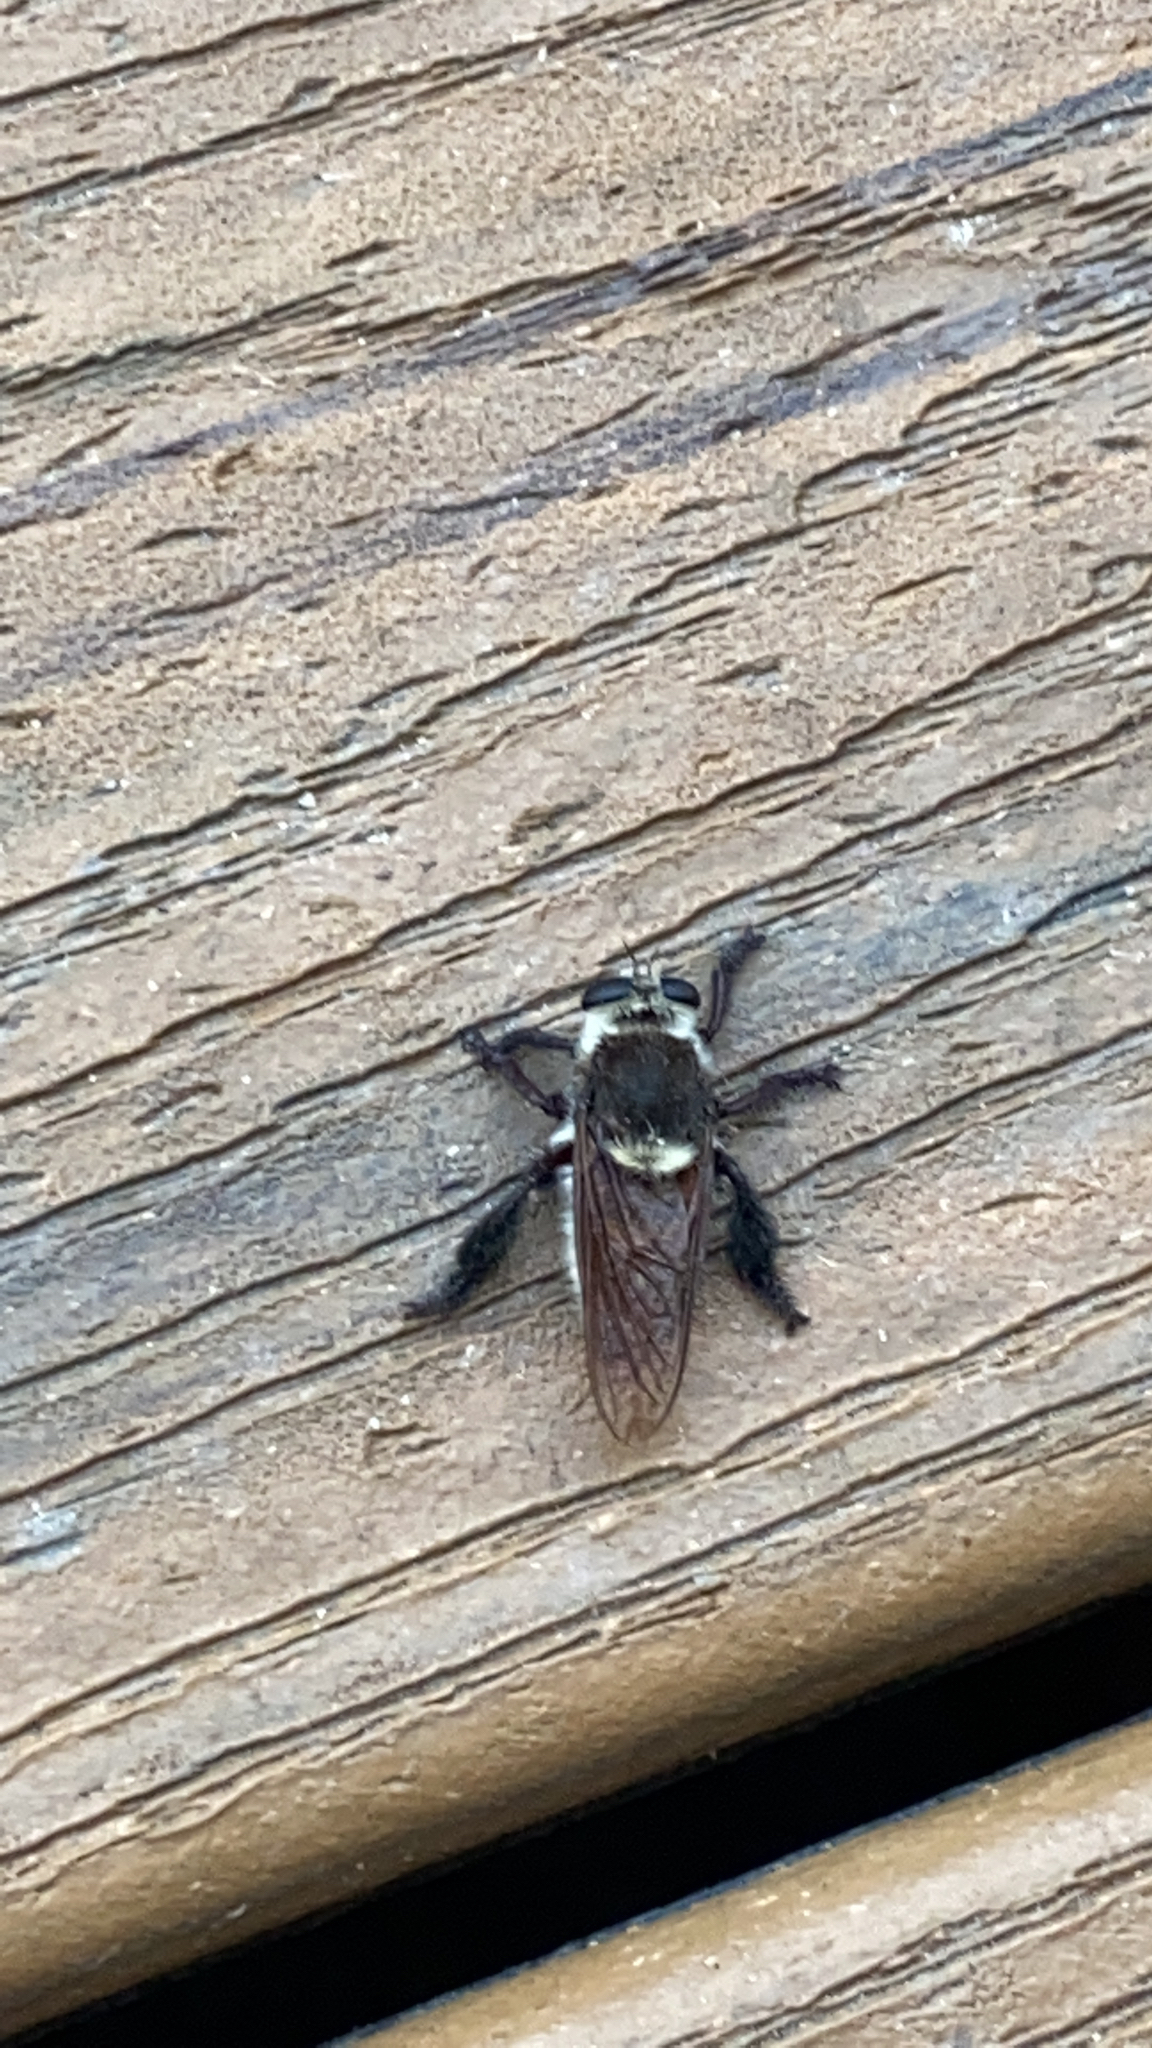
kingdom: Animalia
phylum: Arthropoda
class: Insecta
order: Diptera
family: Asilidae
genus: Mallophora
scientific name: Mallophora fautrix
